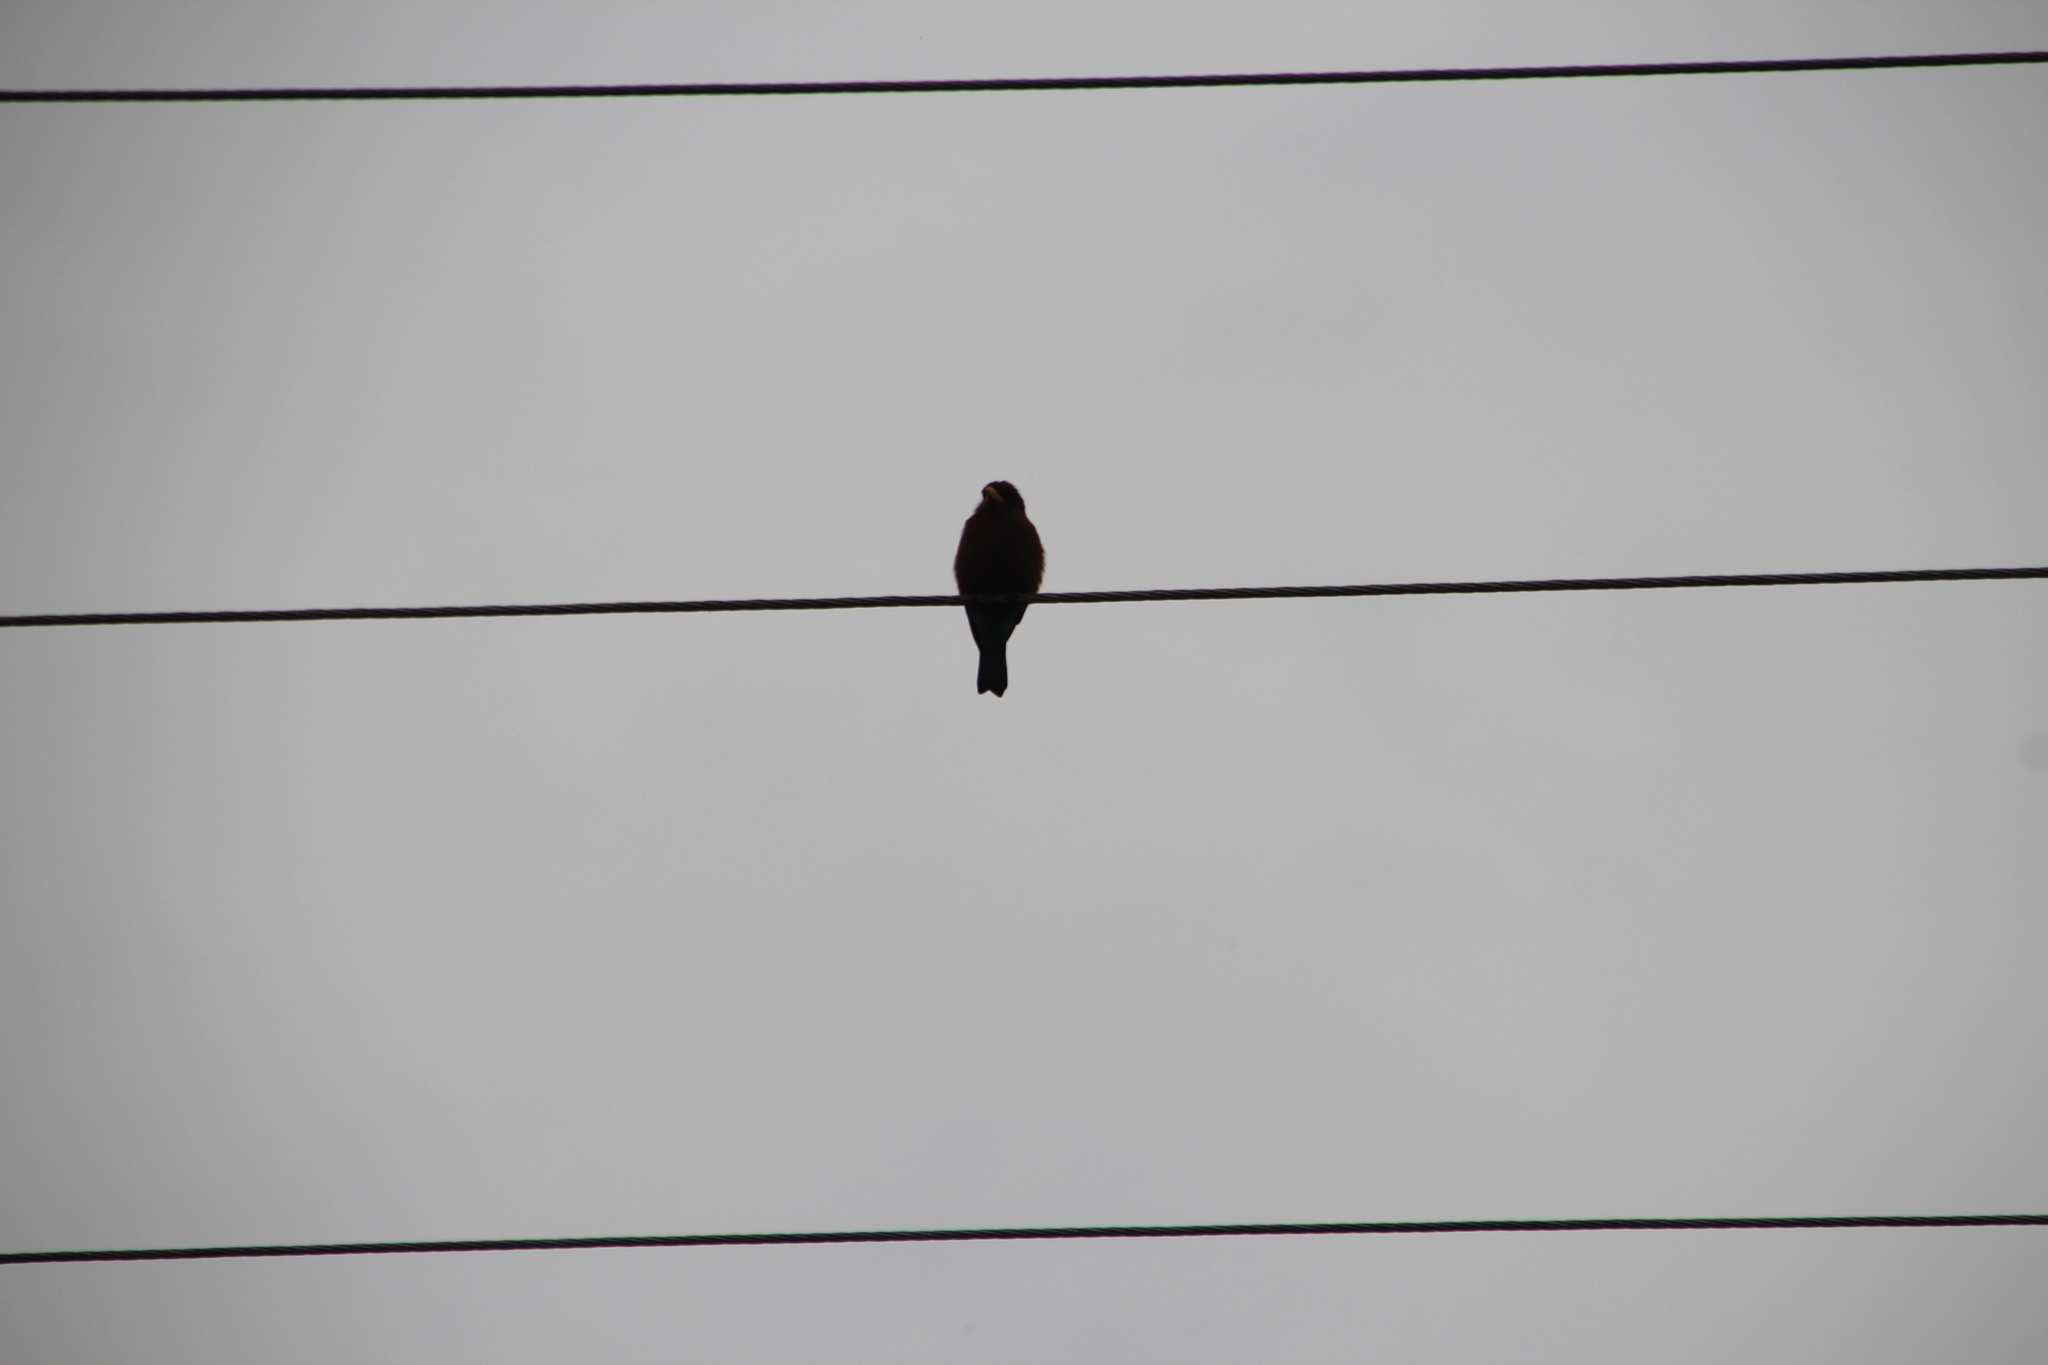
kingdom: Animalia
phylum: Chordata
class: Aves
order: Coraciiformes
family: Coraciidae
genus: Eurystomus
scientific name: Eurystomus glaucurus
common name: Broad-billed roller
